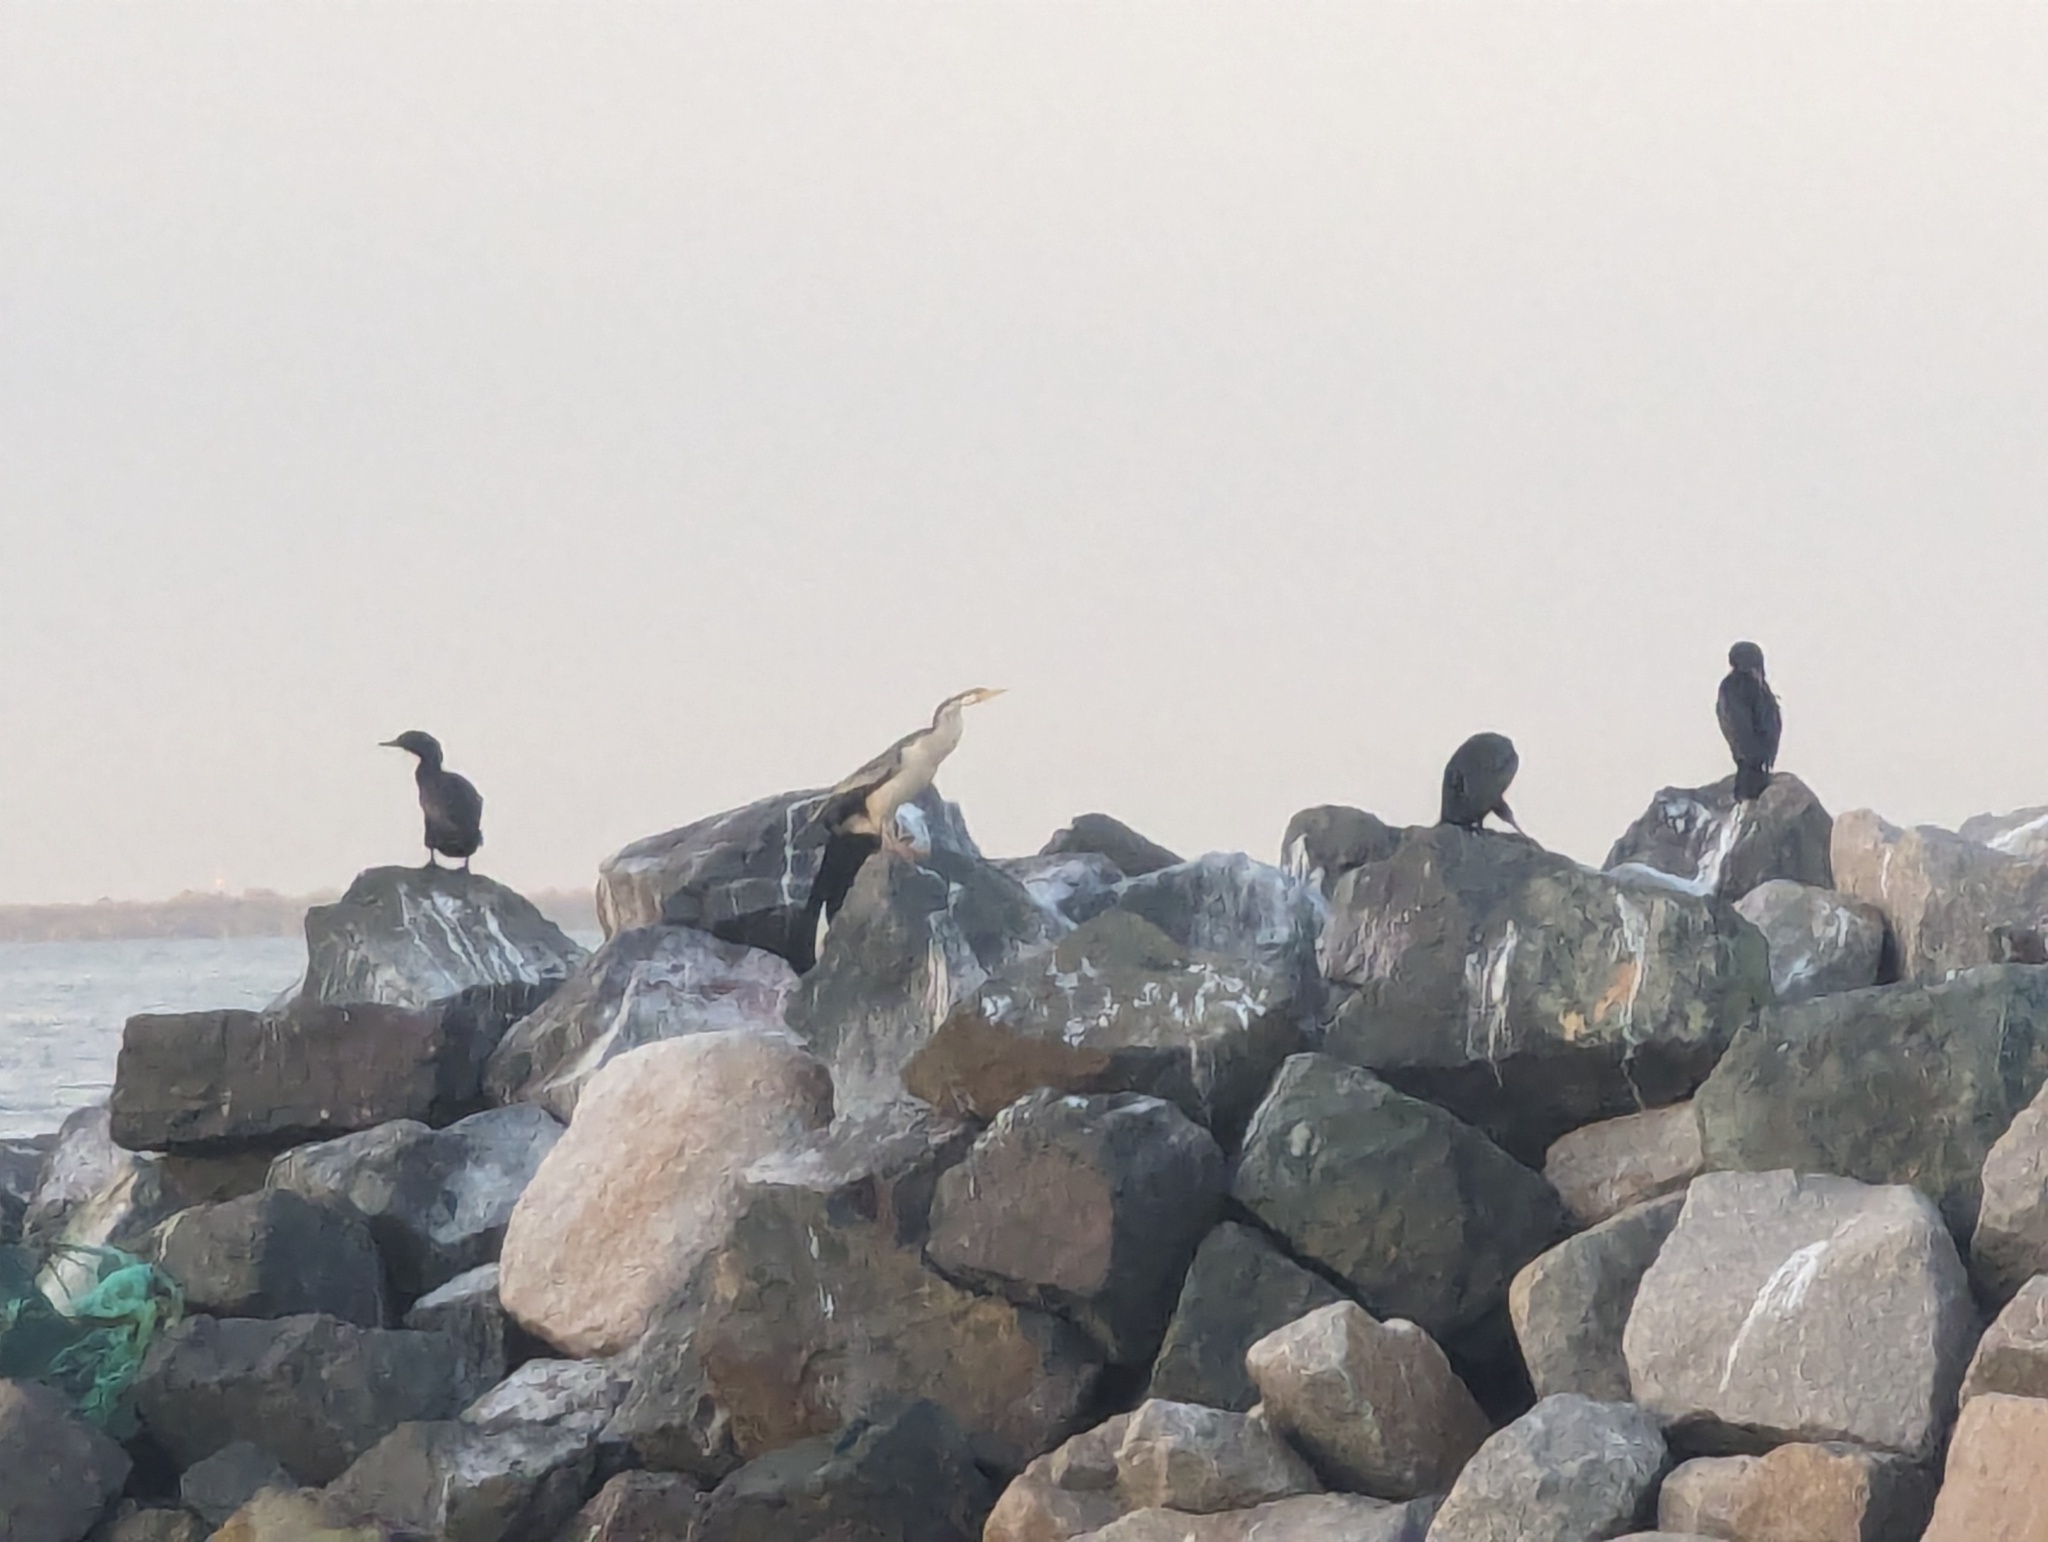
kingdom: Animalia
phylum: Chordata
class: Aves
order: Suliformes
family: Anhingidae
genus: Anhinga
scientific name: Anhinga novaehollandiae
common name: Australasian darter
